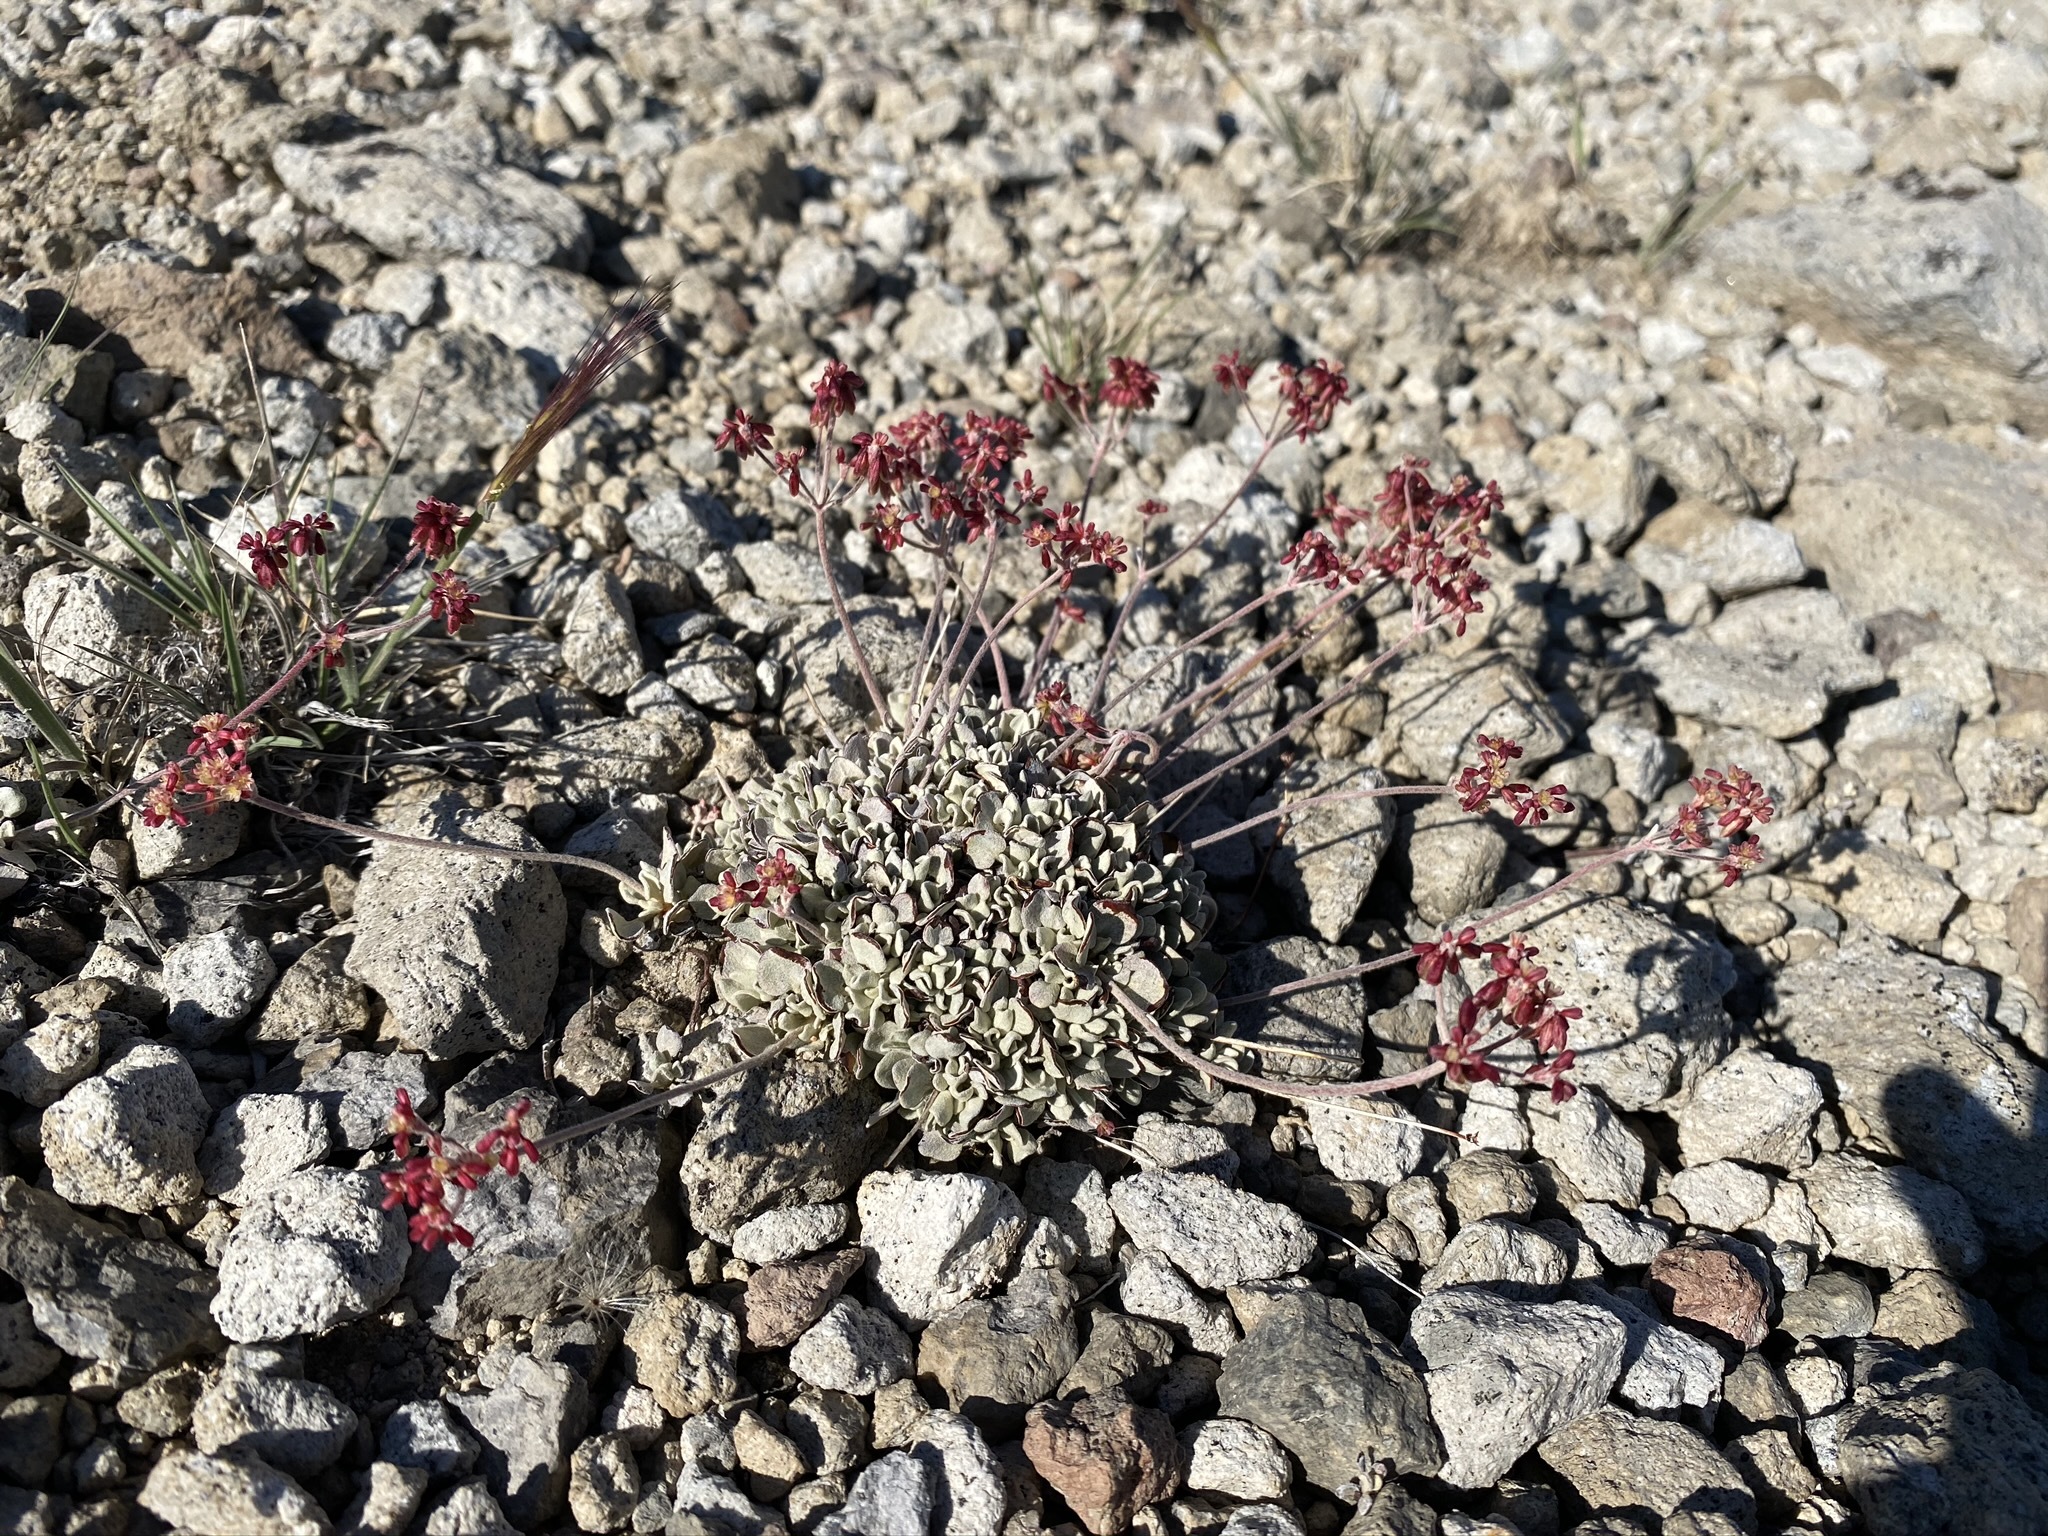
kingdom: Plantae
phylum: Tracheophyta
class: Magnoliopsida
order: Caryophyllales
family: Polygonaceae
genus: Eriogonum
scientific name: Eriogonum incanum
